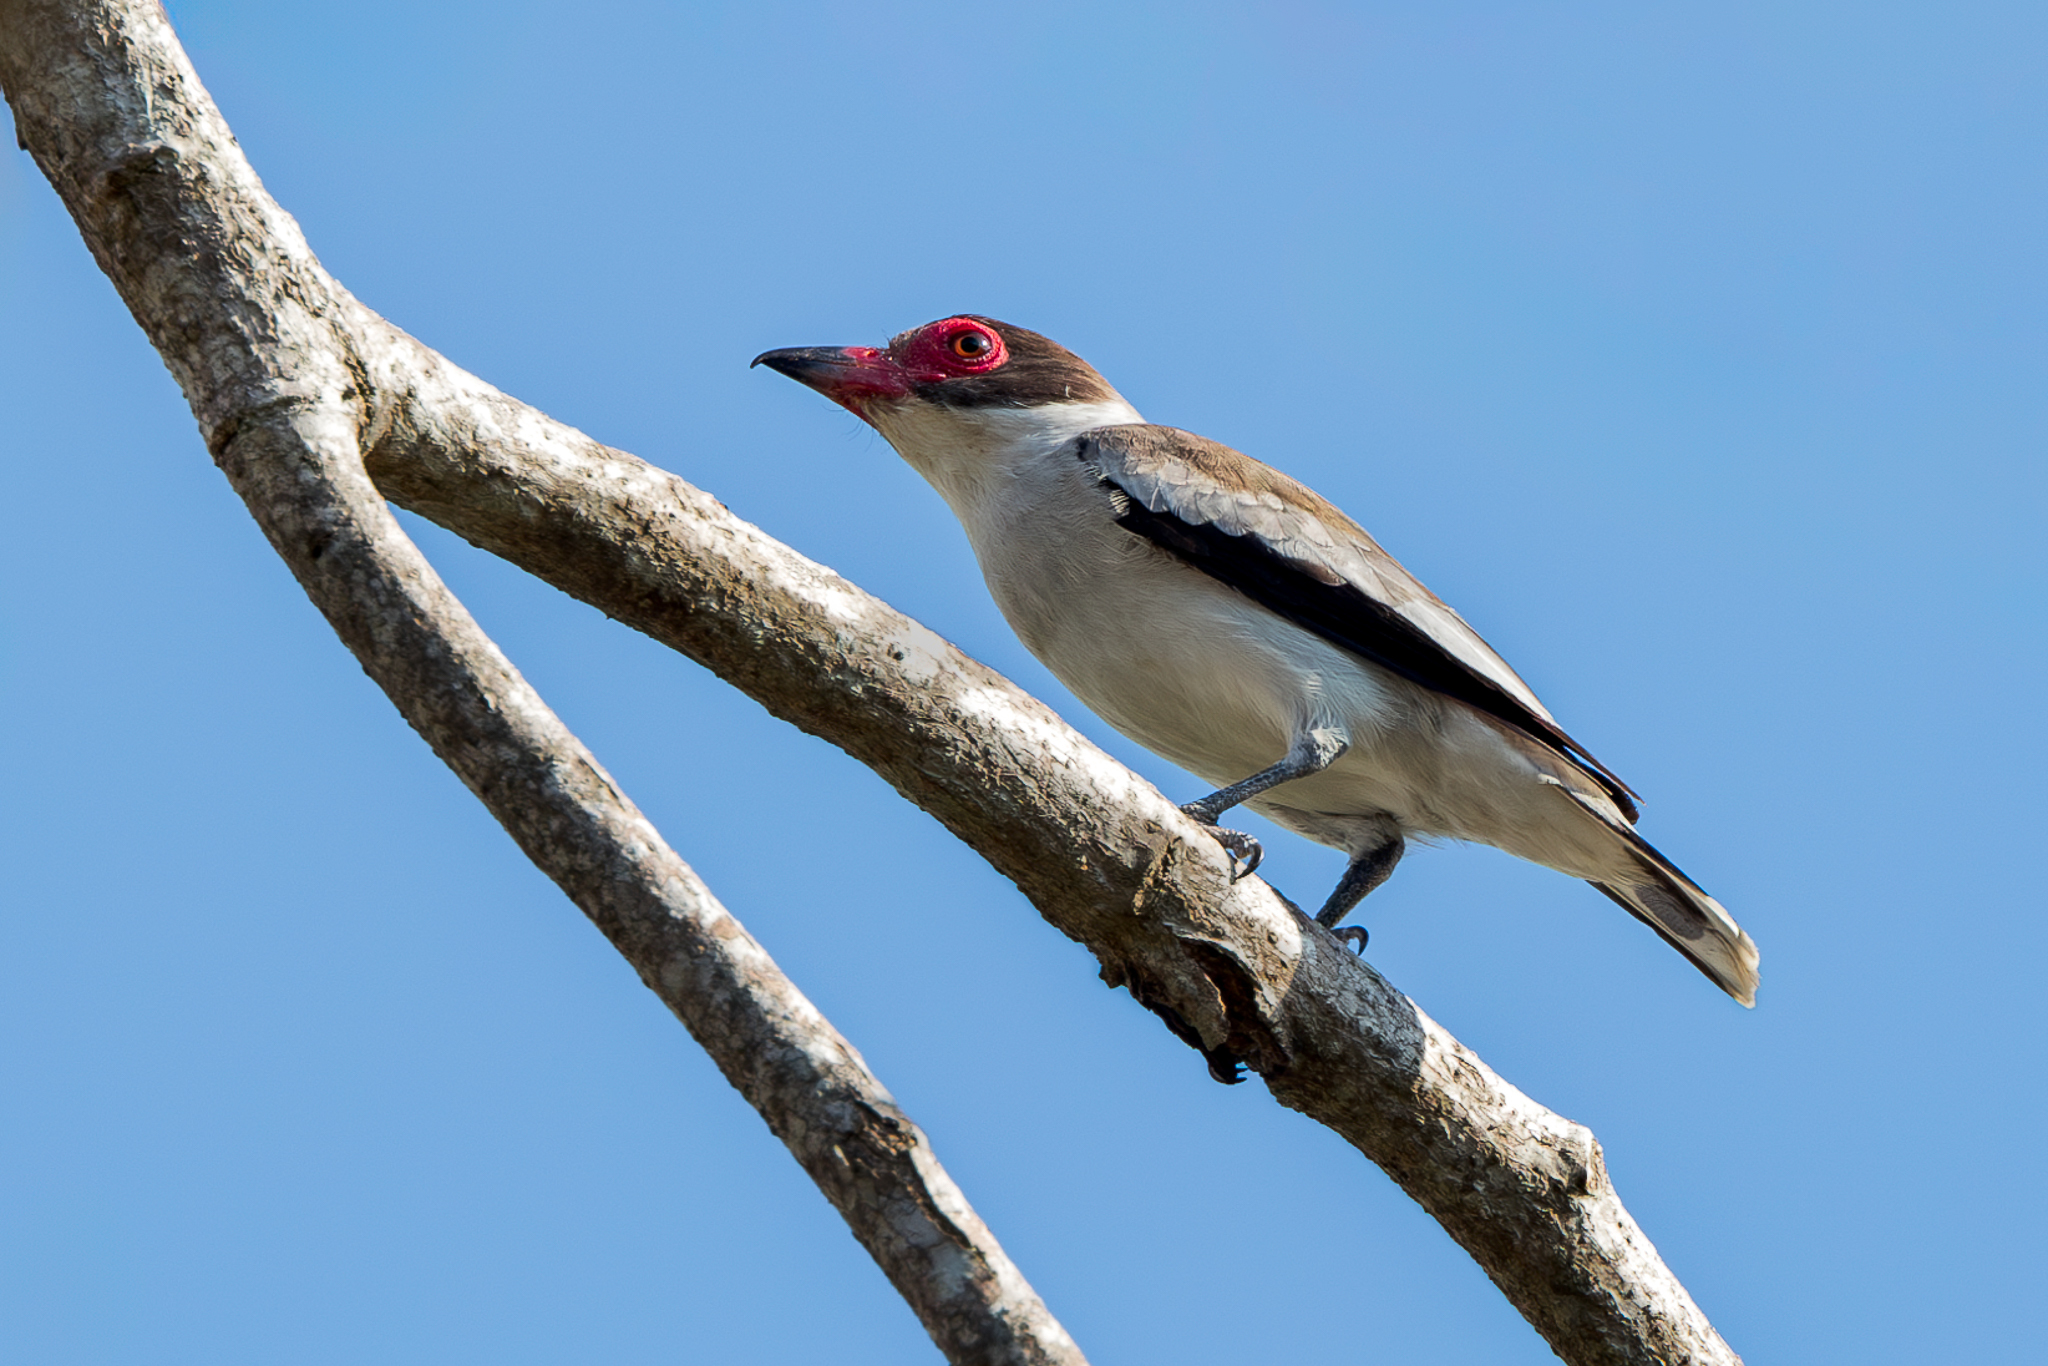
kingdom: Animalia
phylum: Chordata
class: Aves
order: Passeriformes
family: Cotingidae
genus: Tityra
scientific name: Tityra semifasciata
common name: Masked tityra
